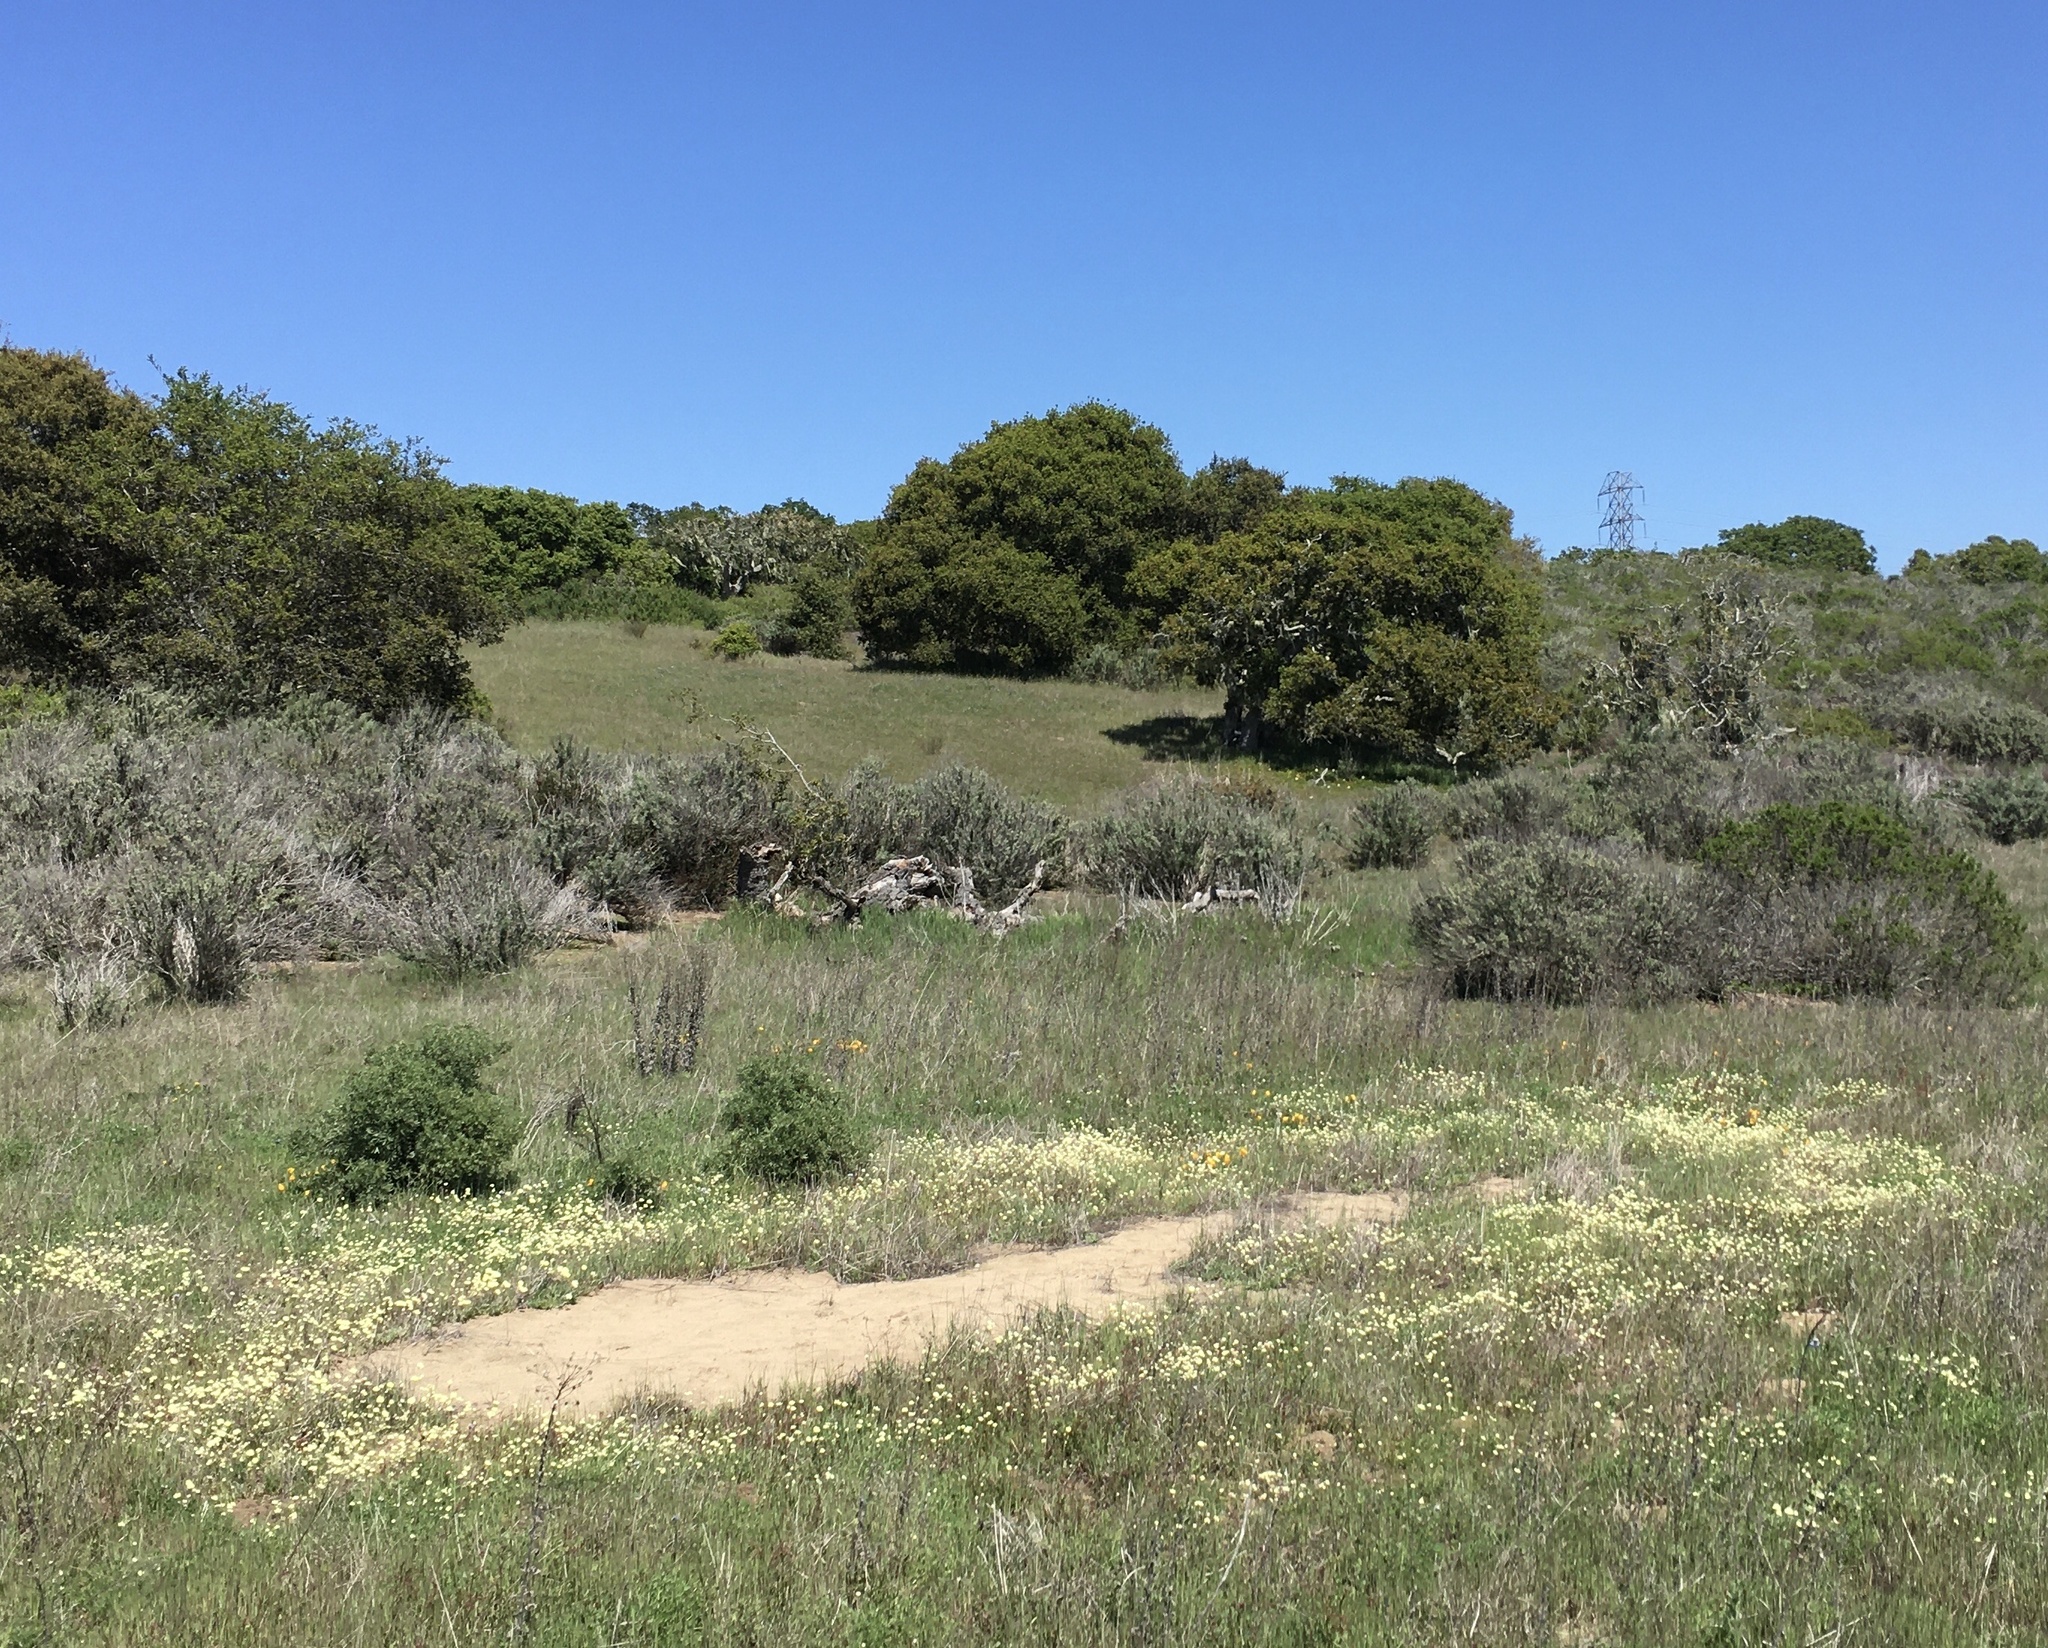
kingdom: Plantae
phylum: Tracheophyta
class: Magnoliopsida
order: Ranunculales
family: Papaveraceae
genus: Platystemon
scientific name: Platystemon californicus
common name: Cream-cups
